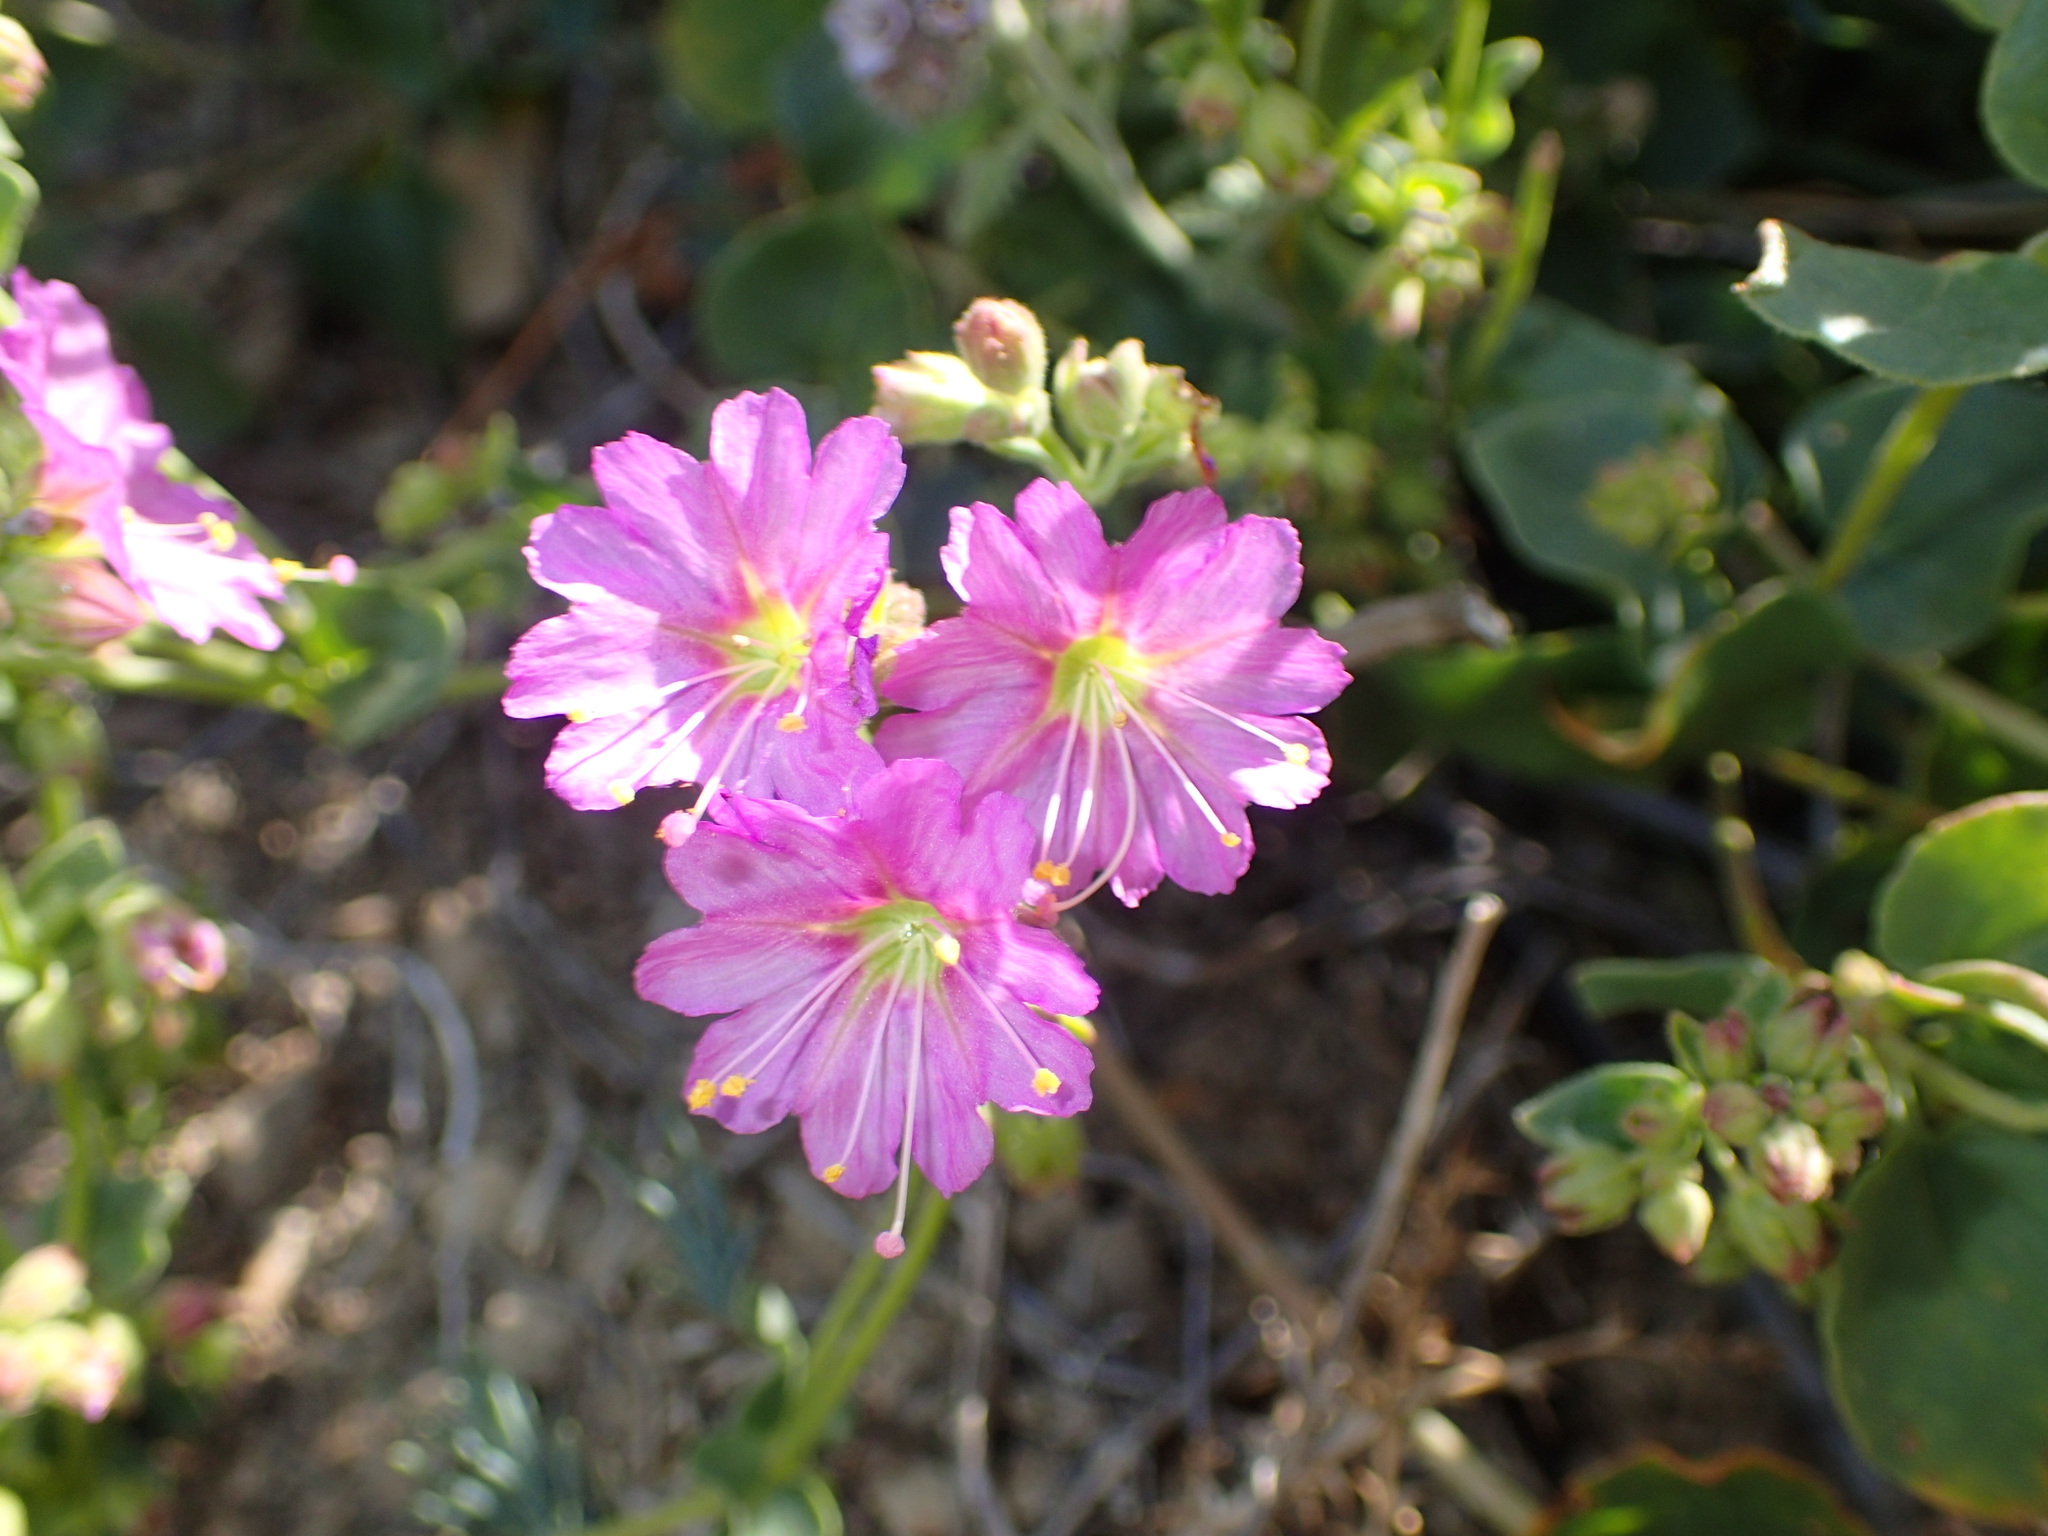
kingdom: Plantae
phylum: Tracheophyta
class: Magnoliopsida
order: Caryophyllales
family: Nyctaginaceae
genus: Mirabilis
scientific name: Mirabilis laevis
